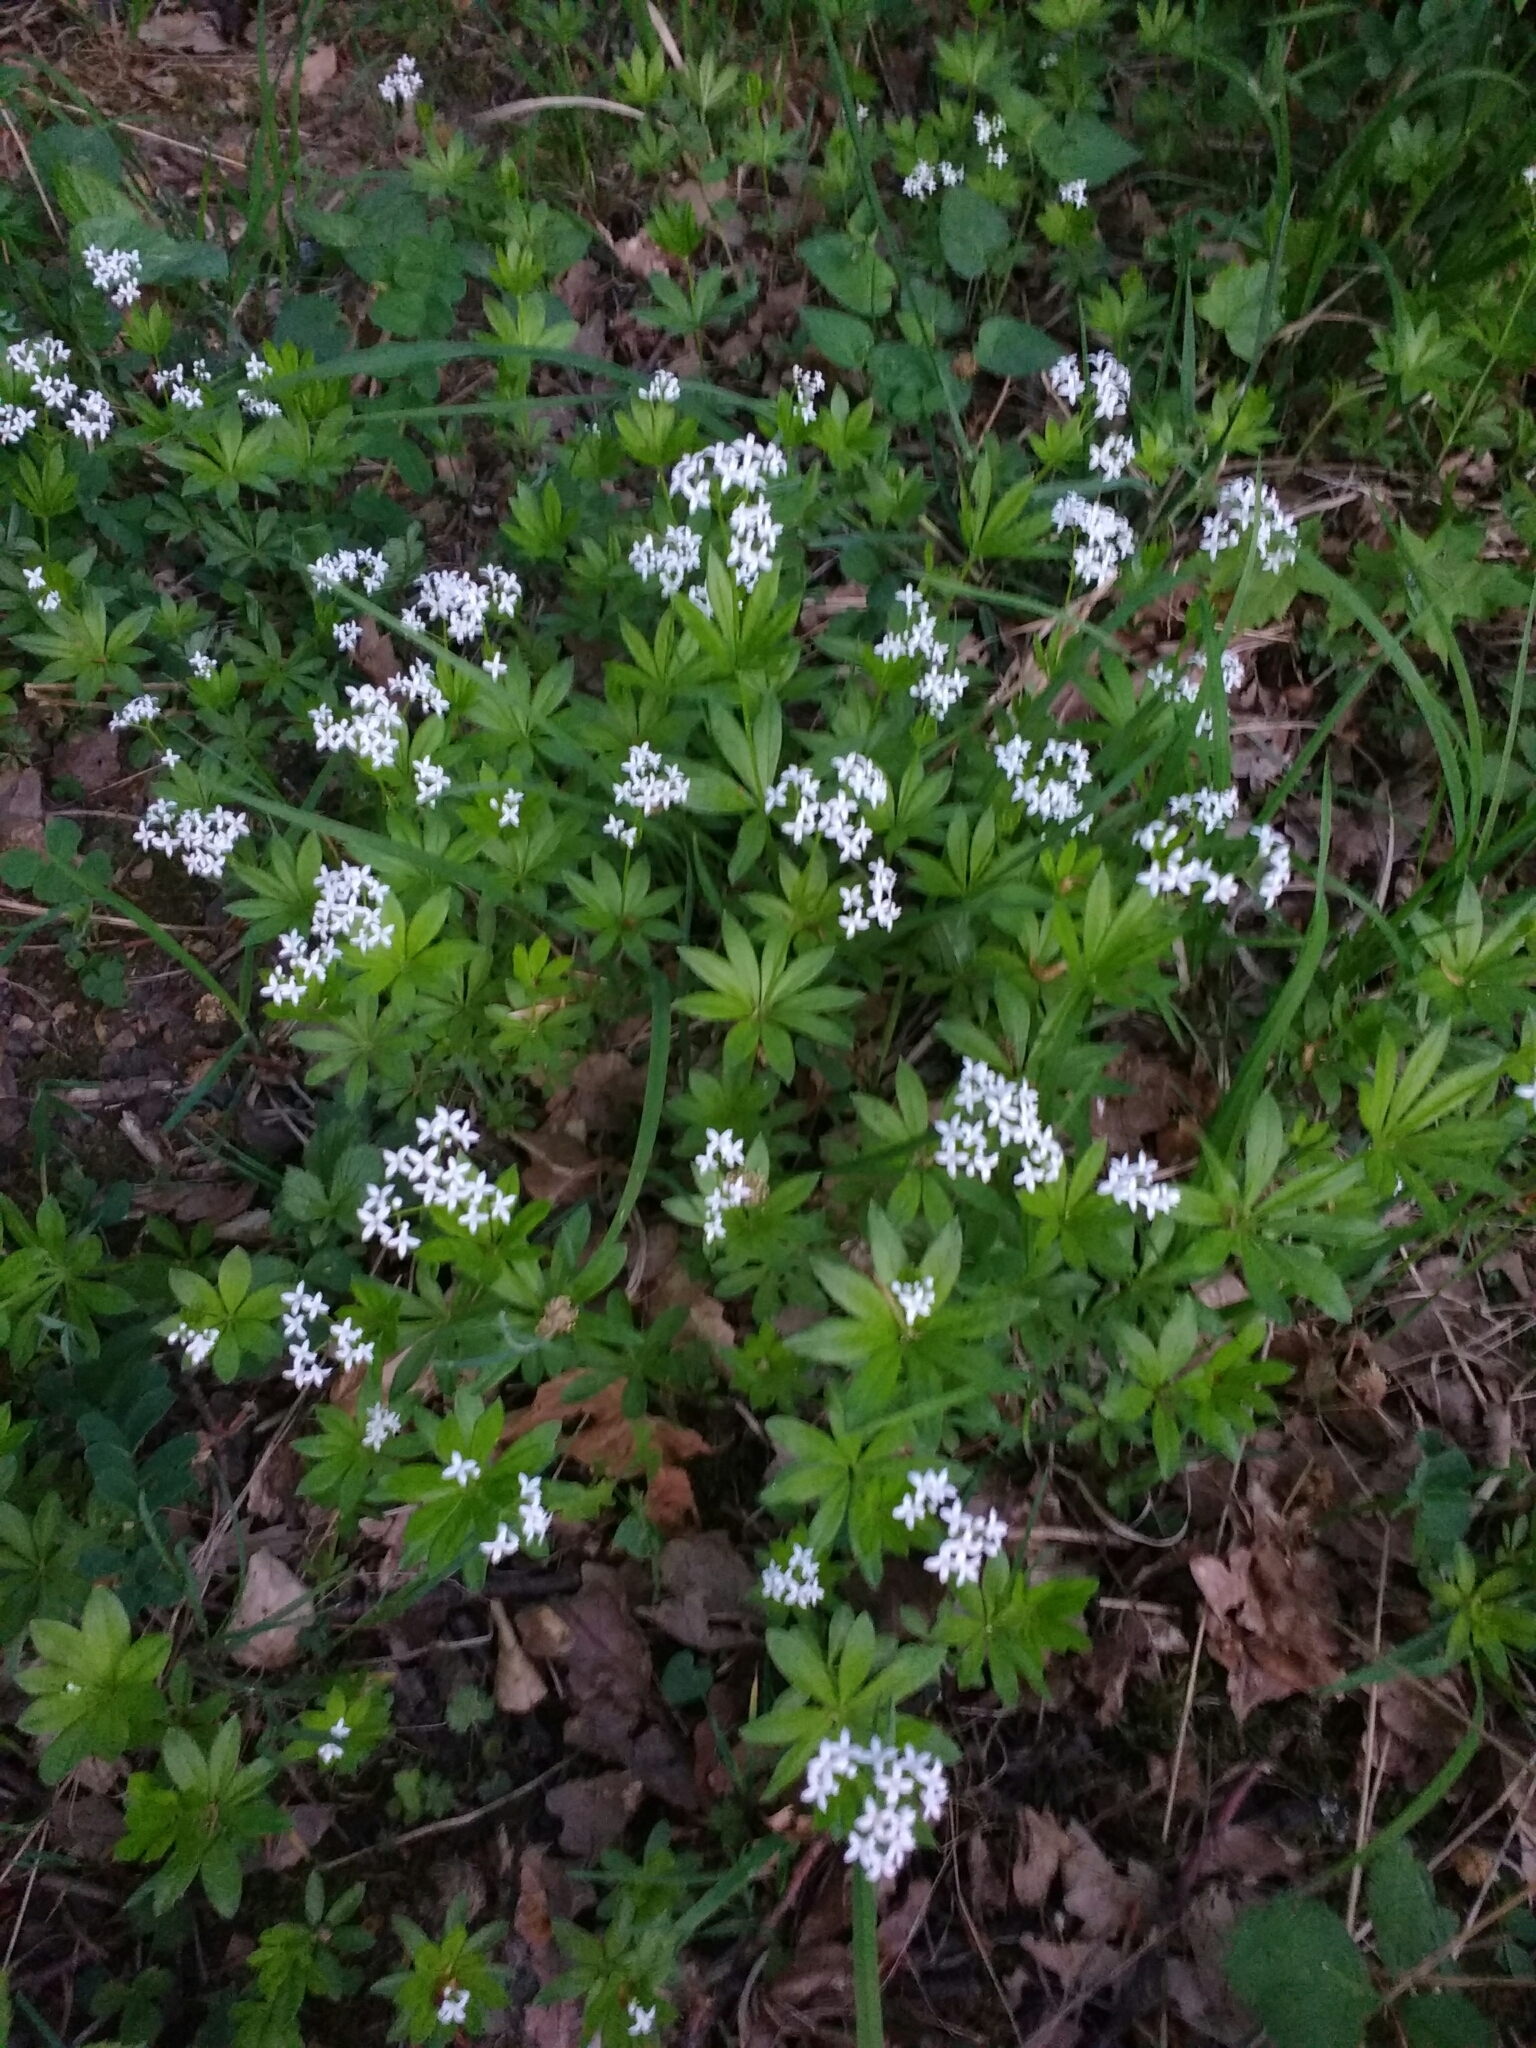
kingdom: Plantae
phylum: Tracheophyta
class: Magnoliopsida
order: Gentianales
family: Rubiaceae
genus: Galium
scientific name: Galium odoratum
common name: Sweet woodruff
